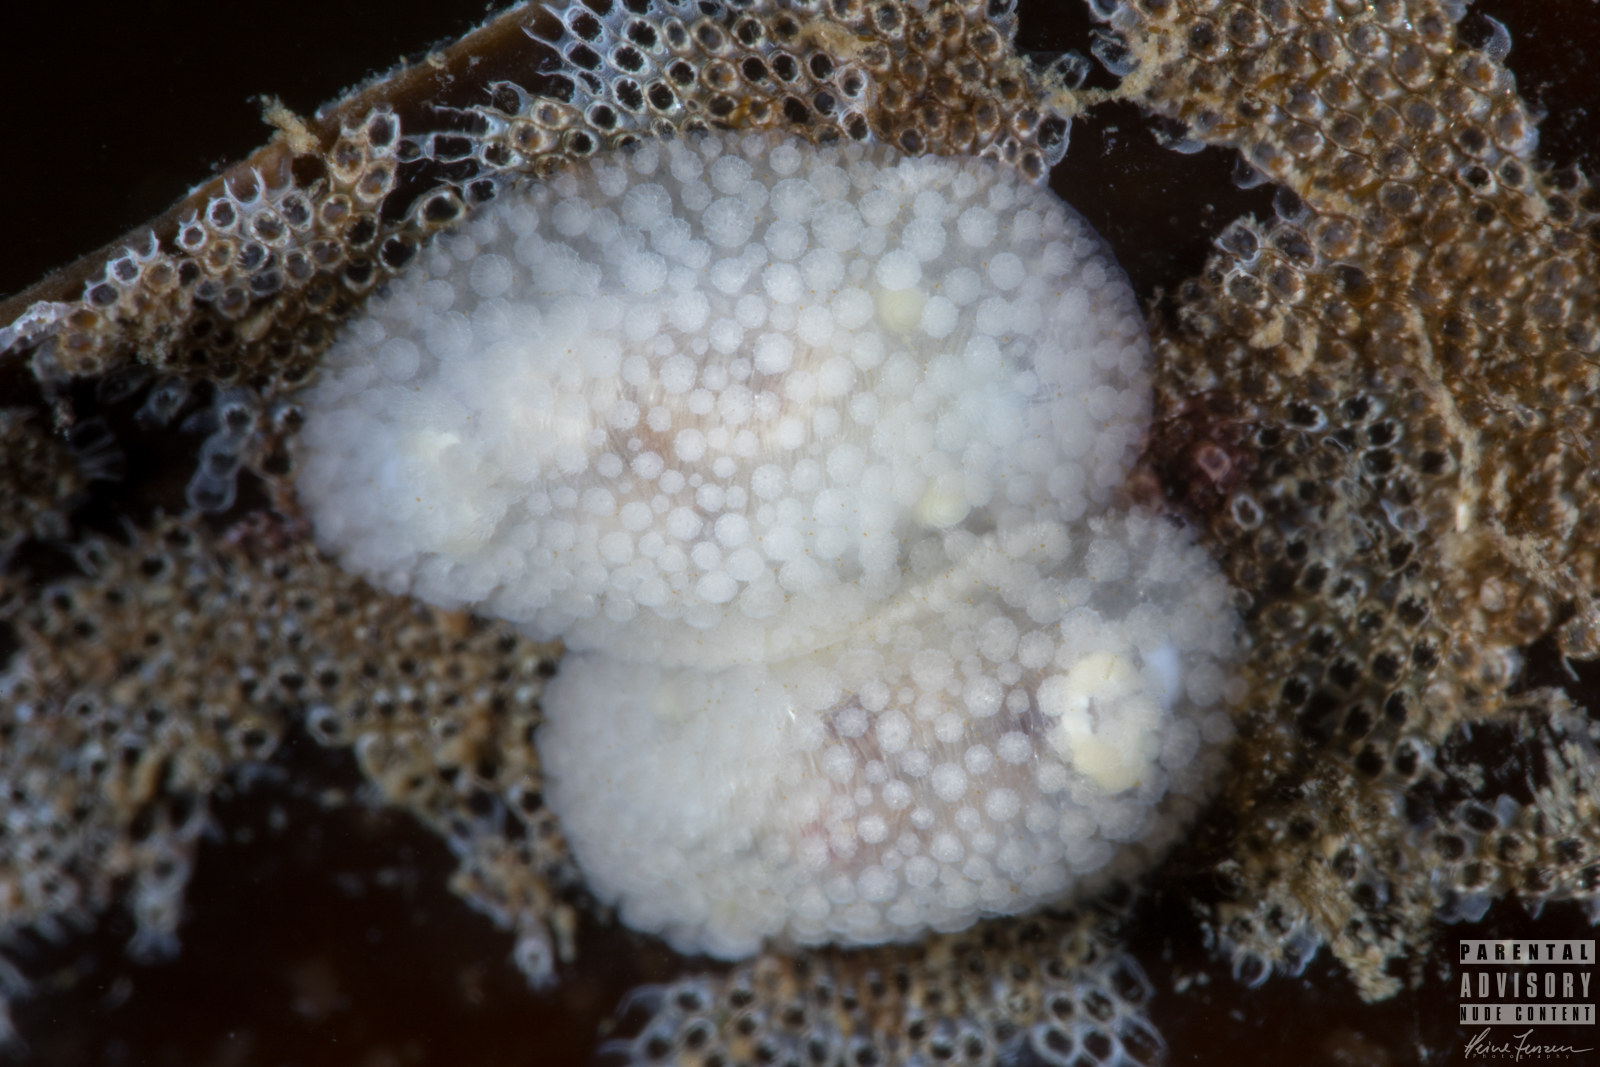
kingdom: Animalia
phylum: Mollusca
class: Gastropoda
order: Nudibranchia
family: Onchidorididae
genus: Onchidoris
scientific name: Onchidoris muricata
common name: Rough doris
